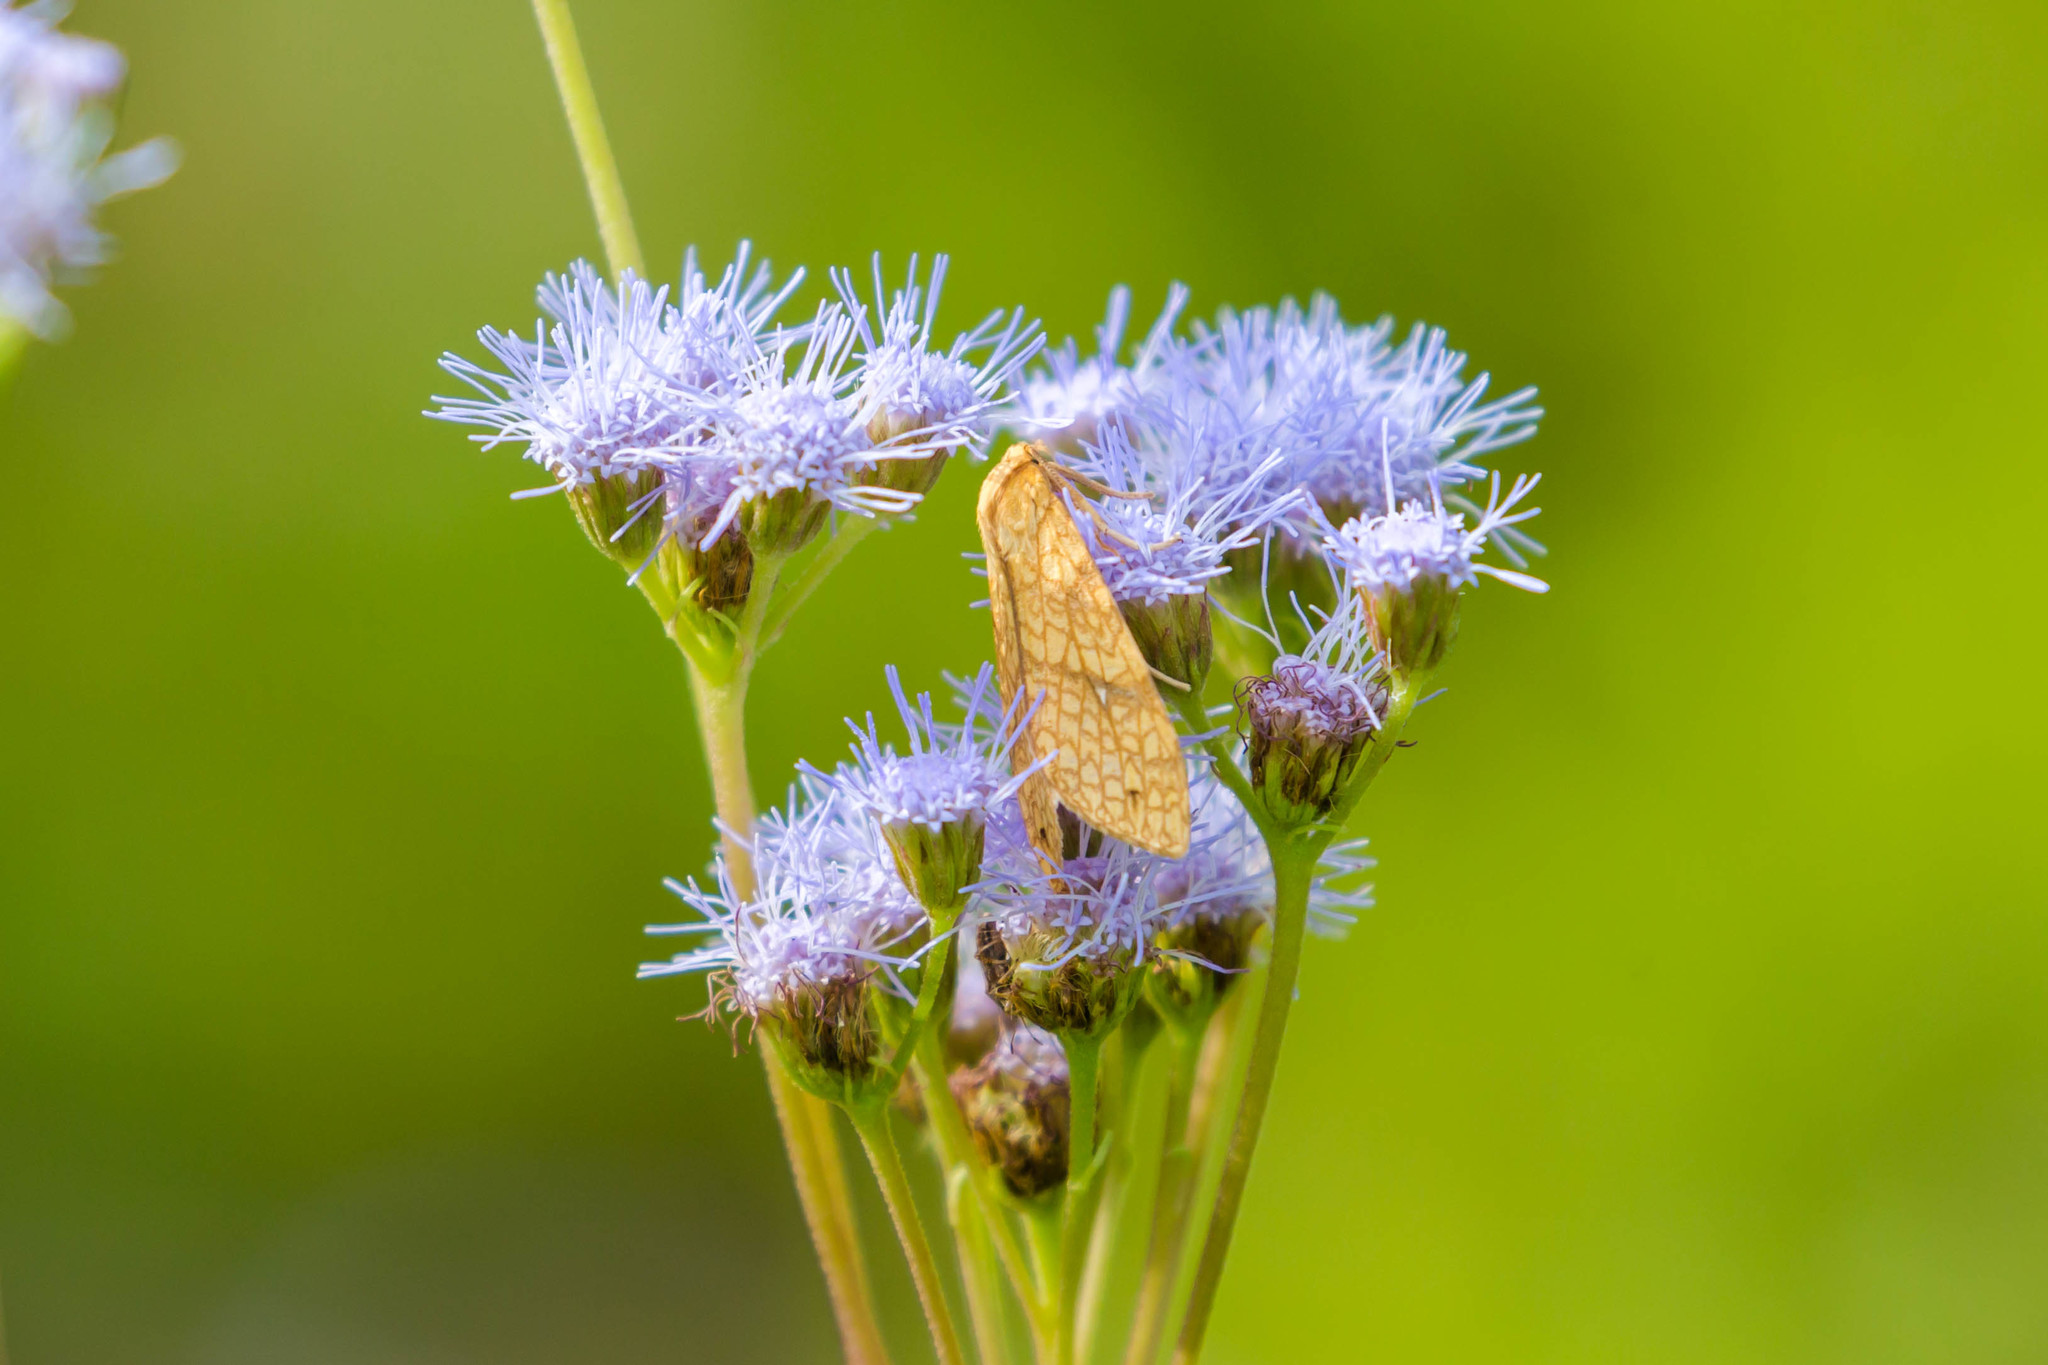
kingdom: Animalia
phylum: Arthropoda
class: Insecta
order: Lepidoptera
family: Erebidae
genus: Lophocampa
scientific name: Lophocampa annulosa
